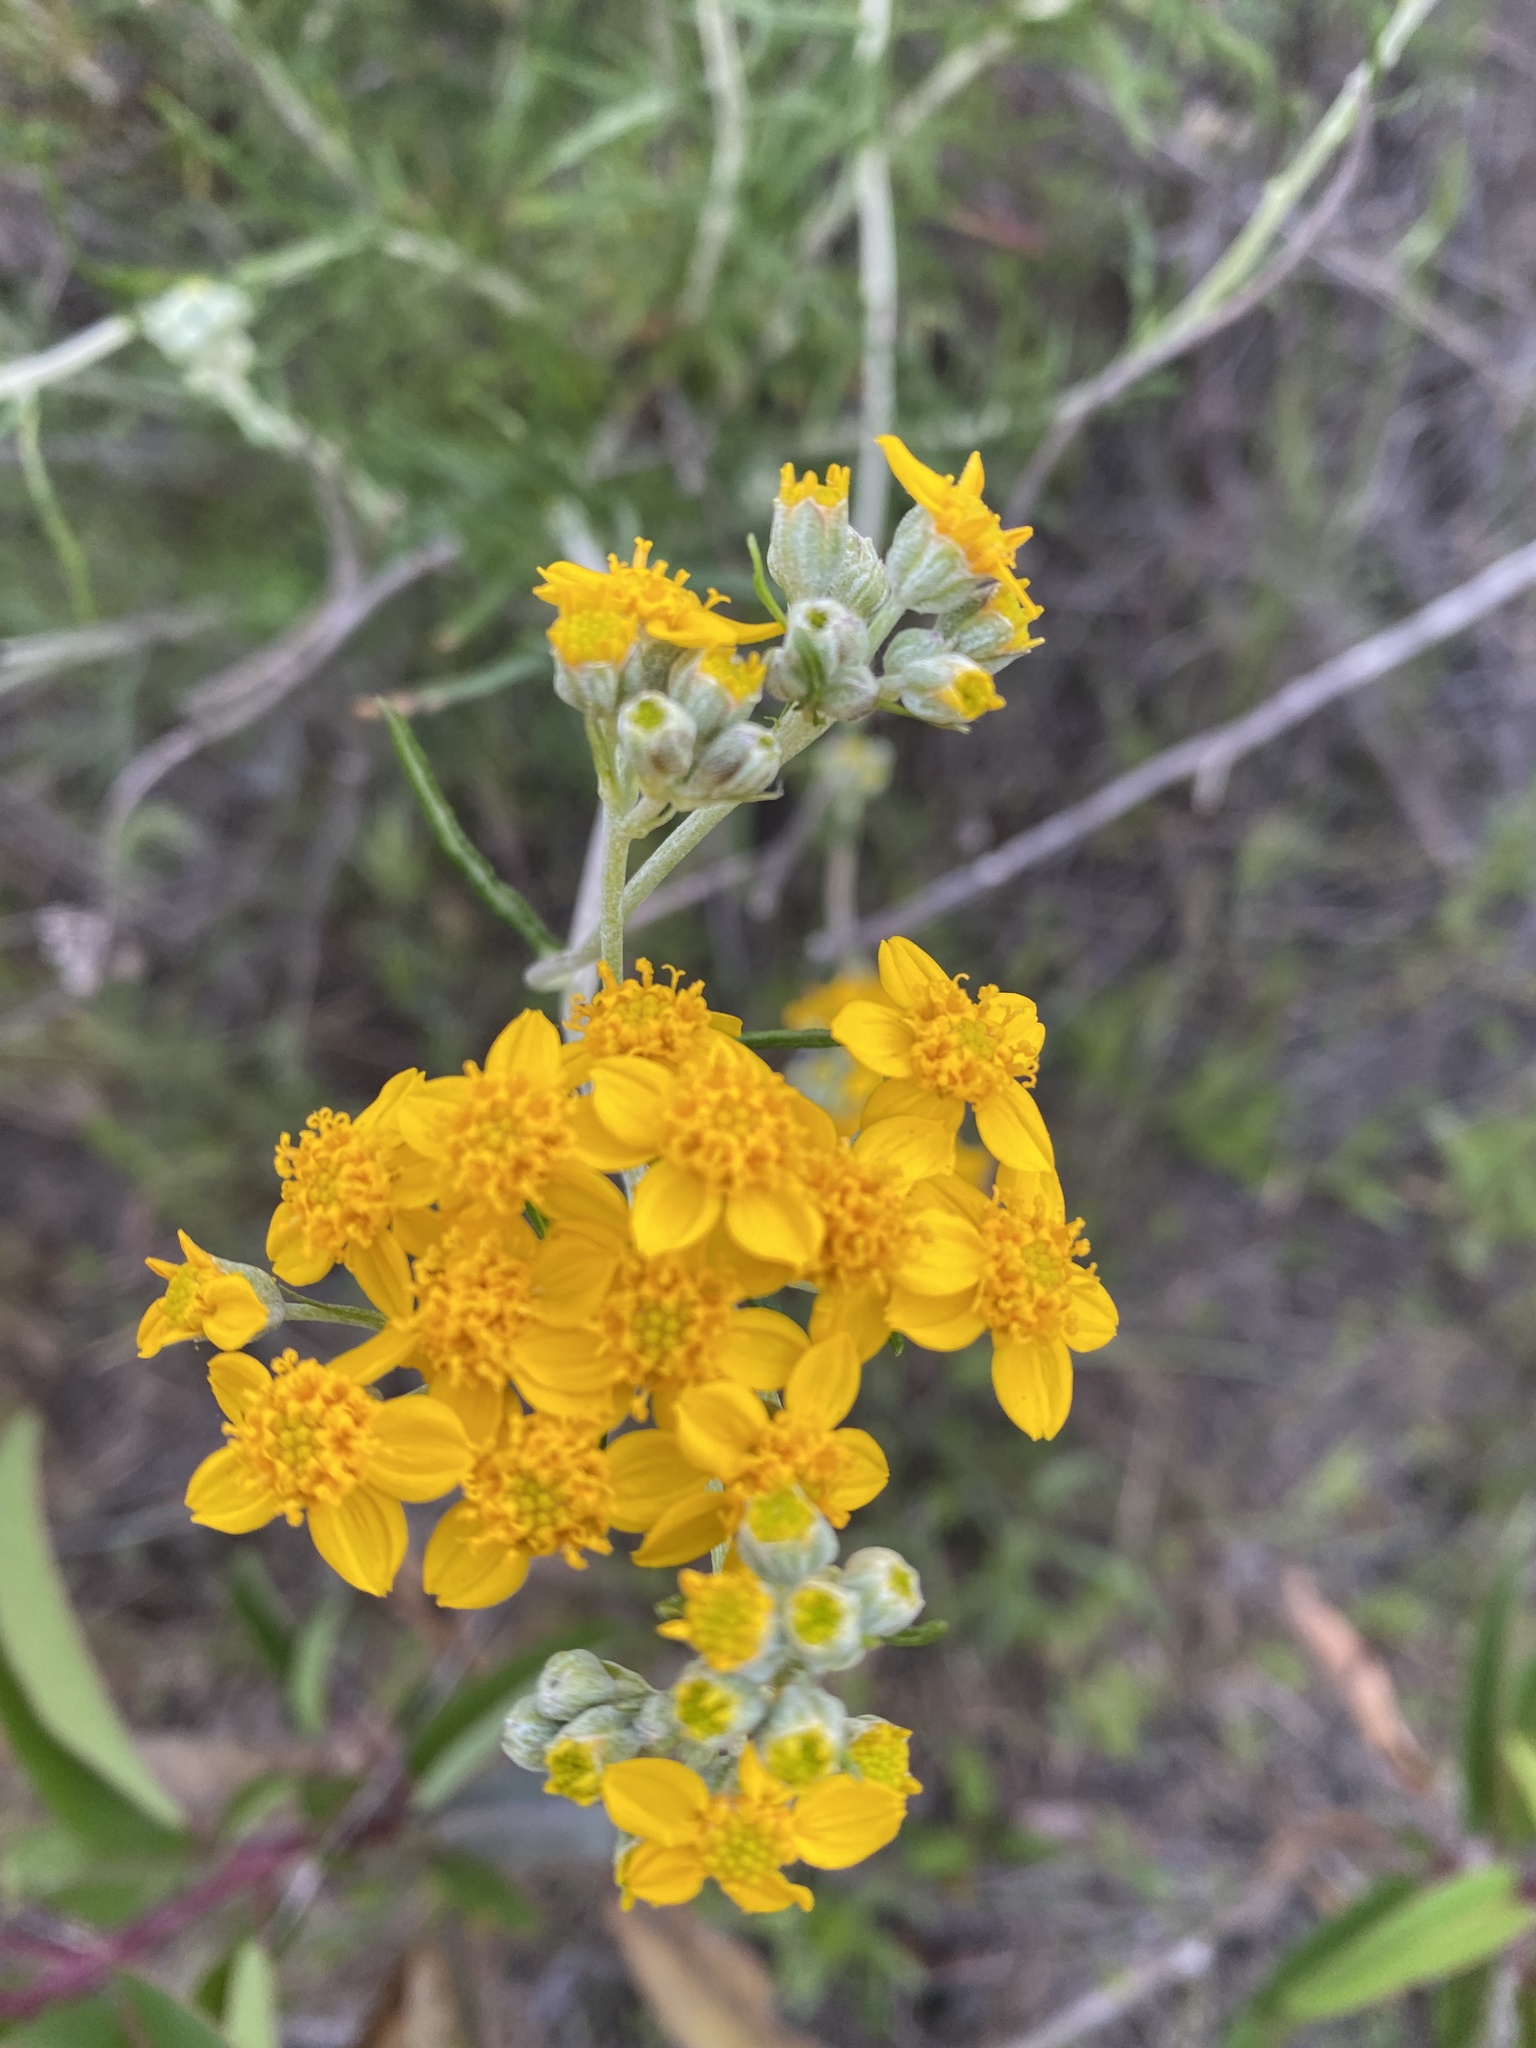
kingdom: Plantae
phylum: Tracheophyta
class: Magnoliopsida
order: Asterales
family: Asteraceae
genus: Eriophyllum
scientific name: Eriophyllum confertiflorum
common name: Golden-yarrow
